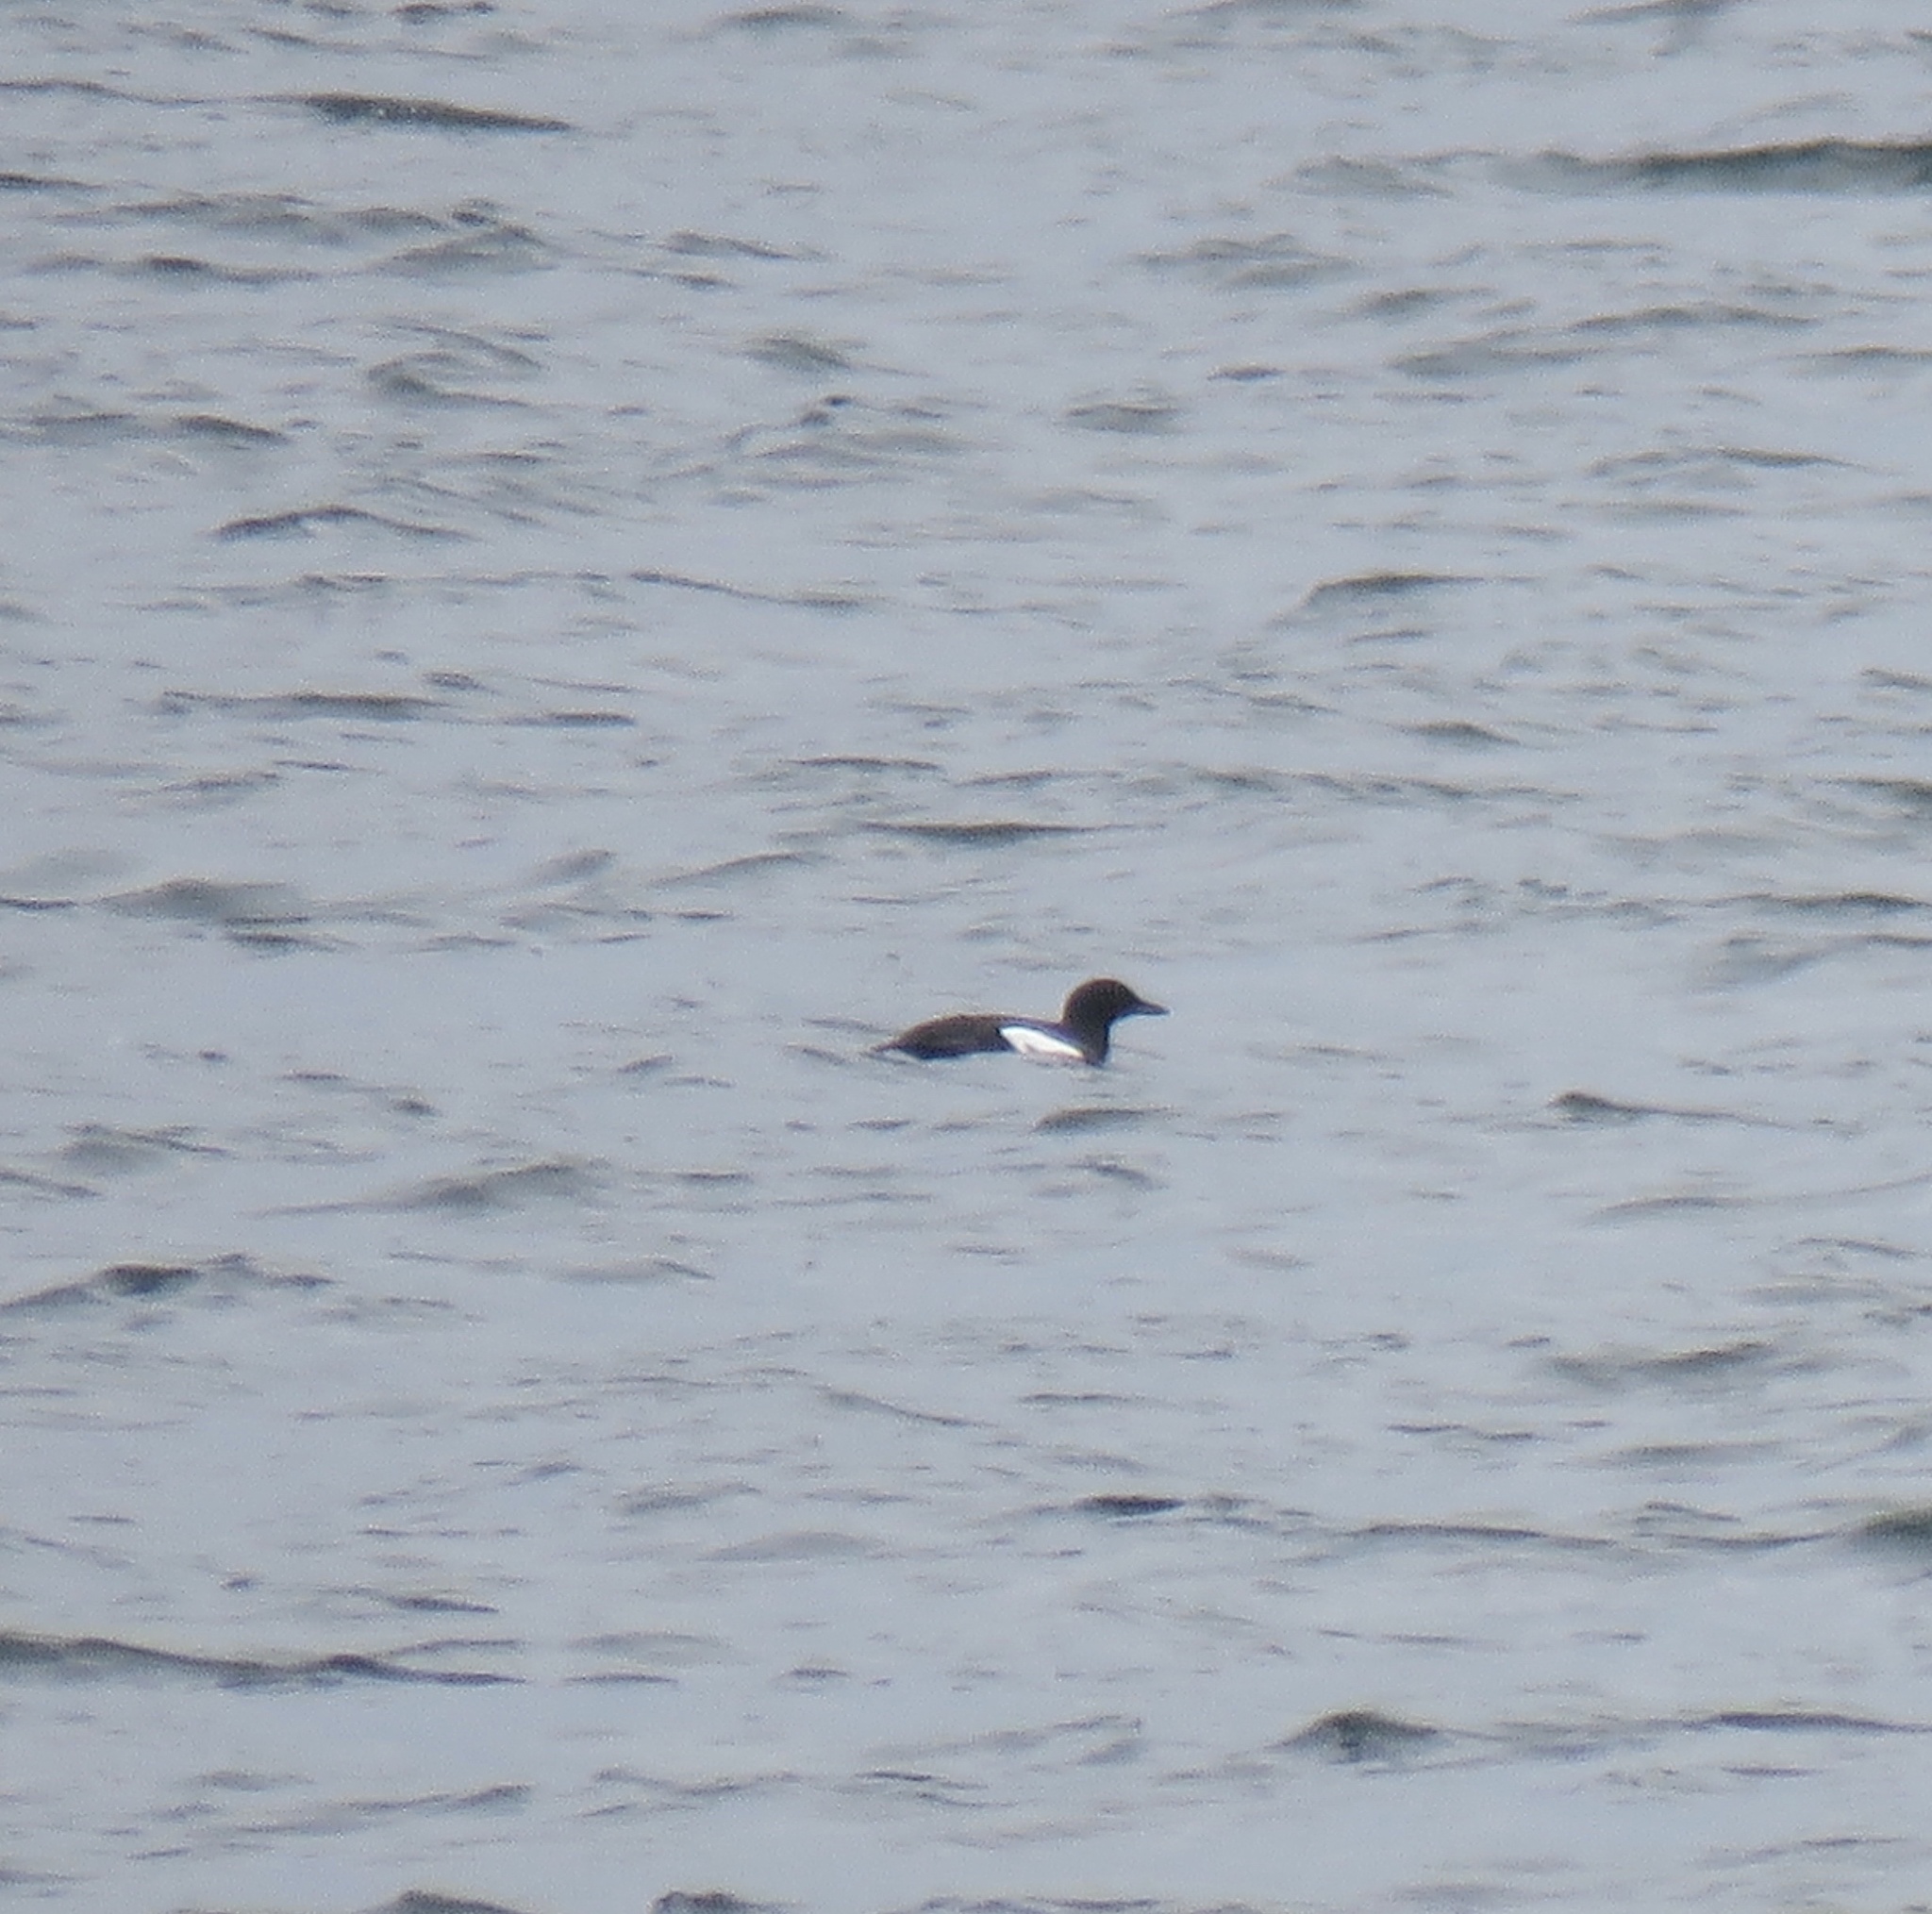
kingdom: Animalia
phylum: Chordata
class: Aves
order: Charadriiformes
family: Alcidae
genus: Cepphus
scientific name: Cepphus columba
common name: Pigeon guillemot
